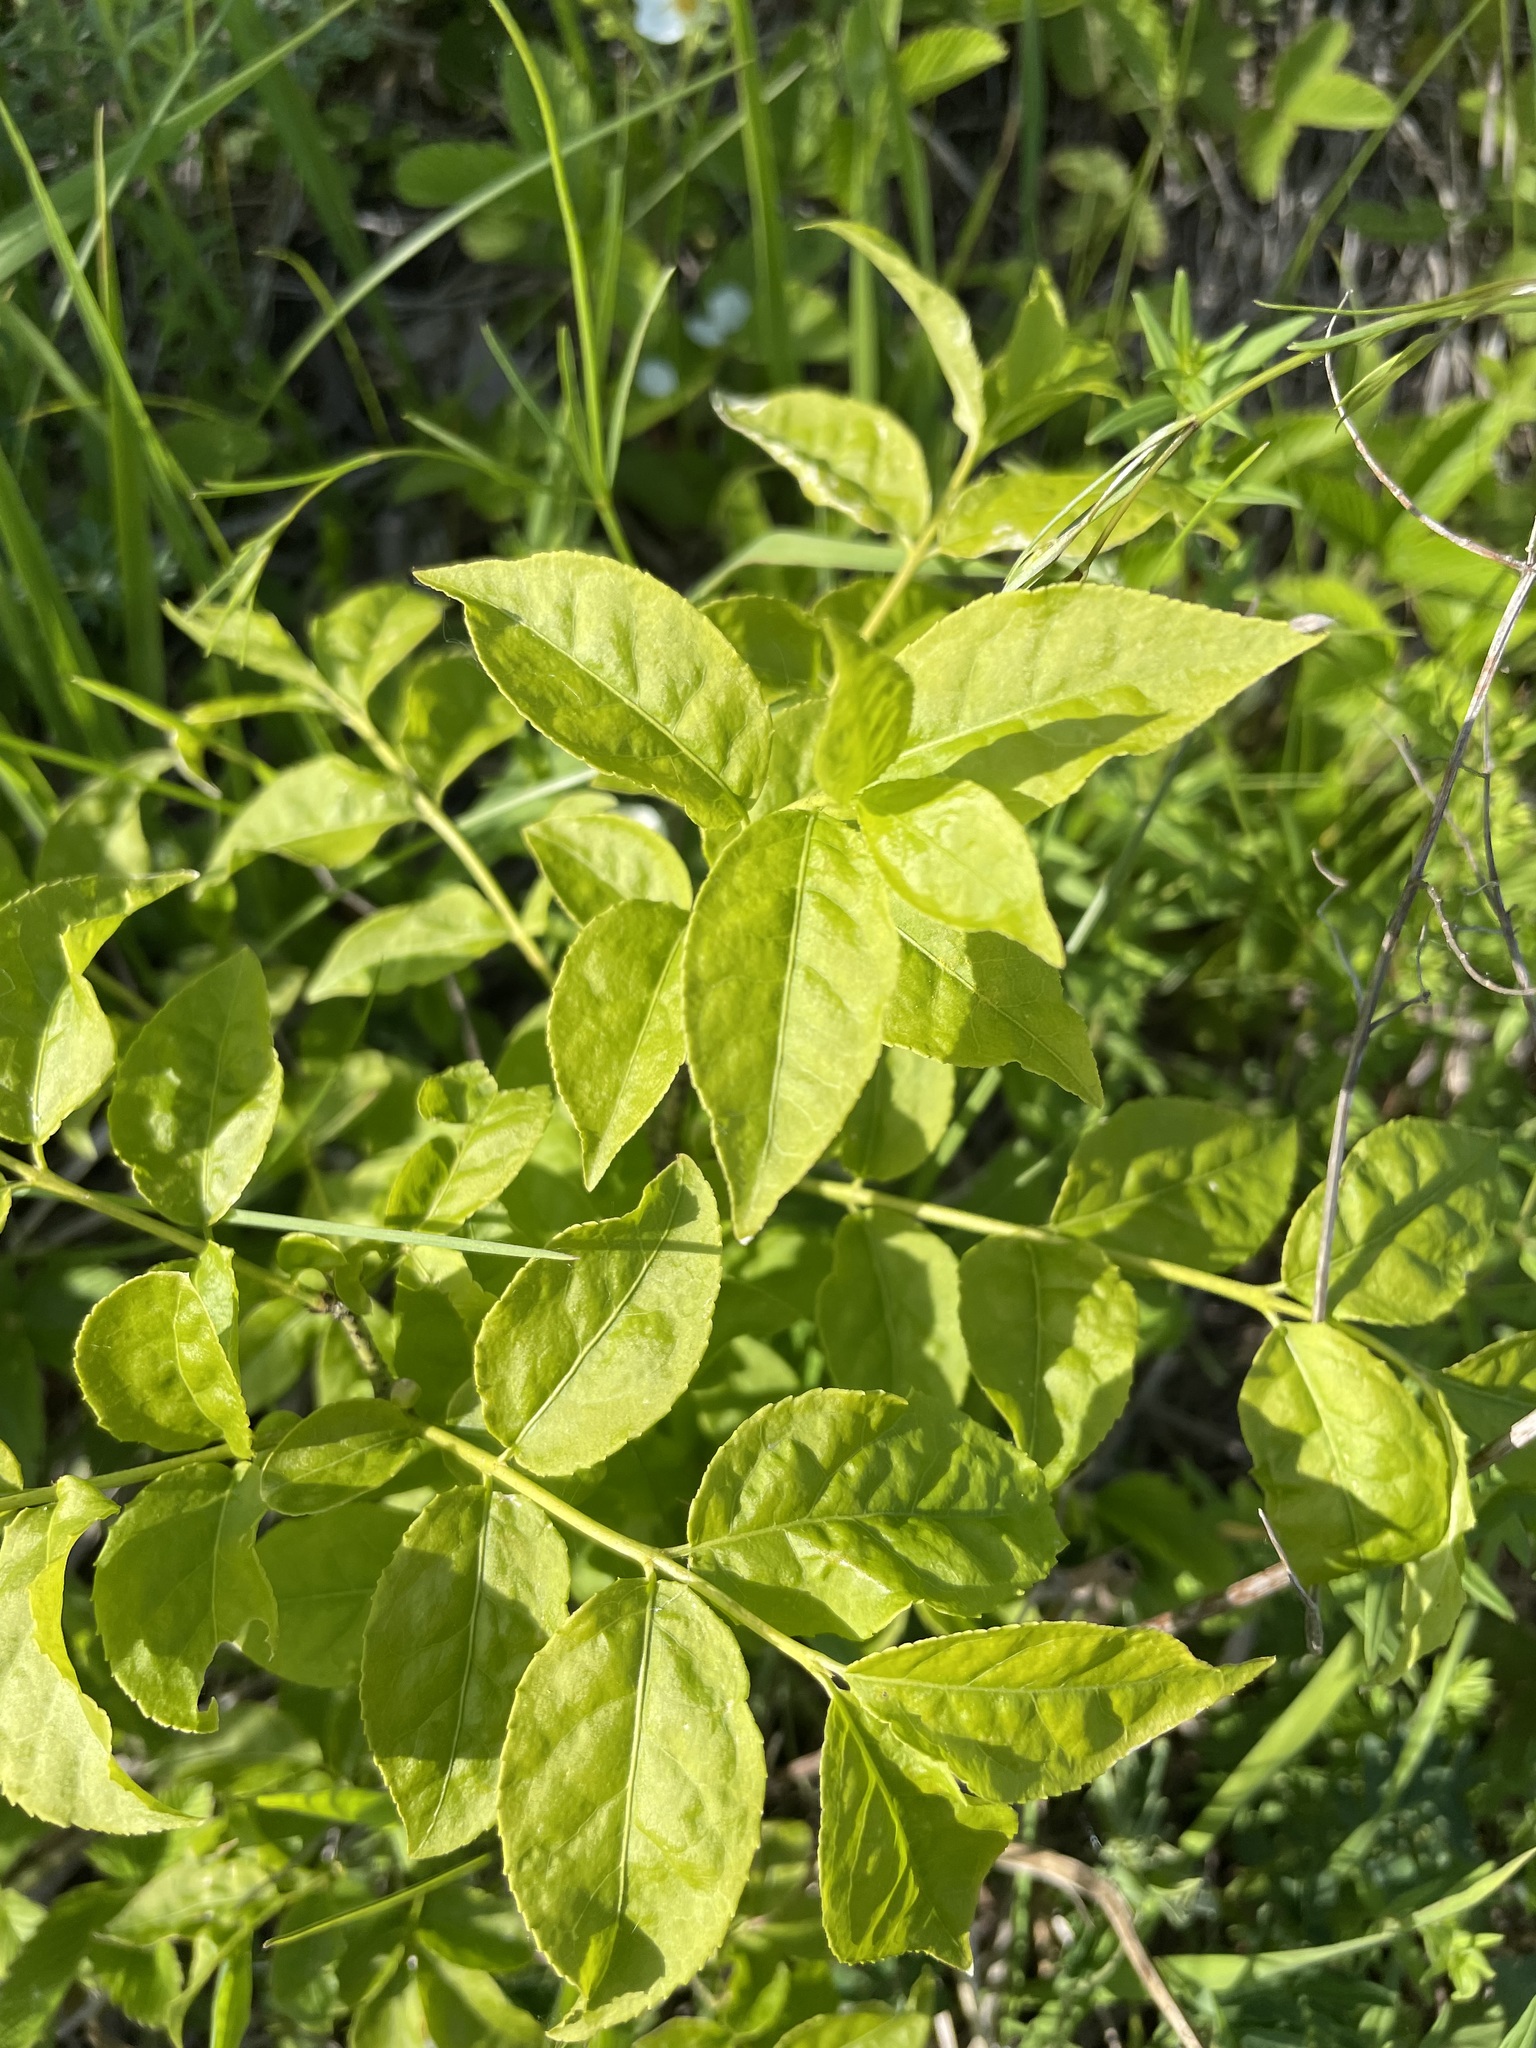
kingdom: Plantae
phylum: Tracheophyta
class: Magnoliopsida
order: Celastrales
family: Celastraceae
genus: Euonymus
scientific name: Euonymus verrucosus
